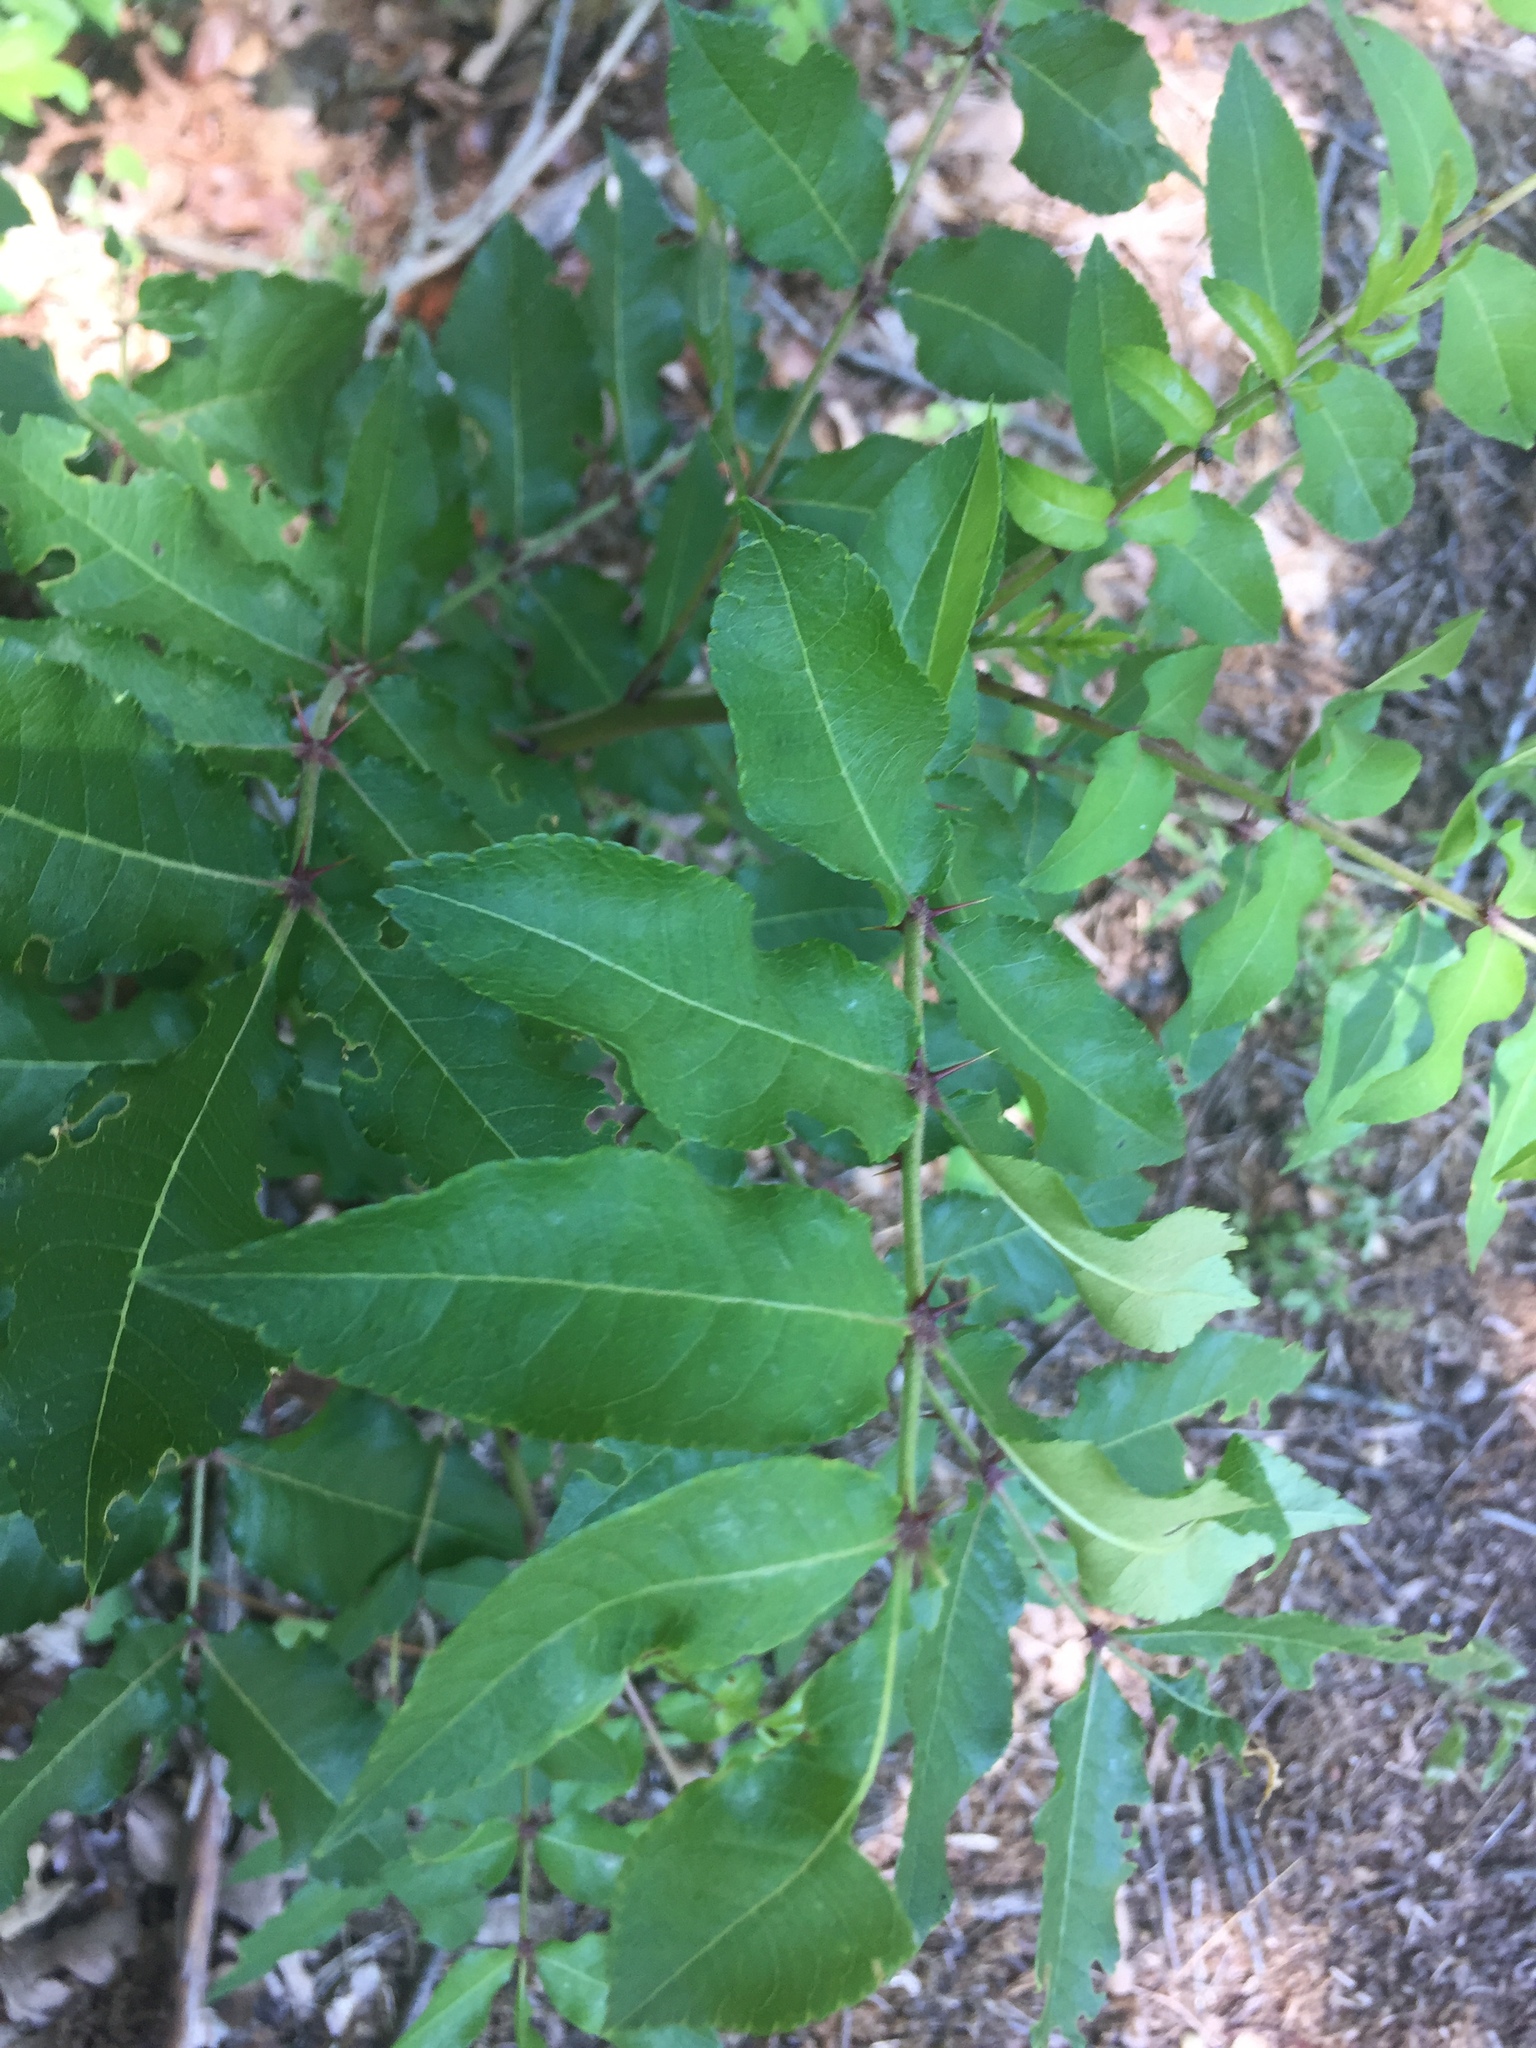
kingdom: Plantae
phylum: Tracheophyta
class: Magnoliopsida
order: Sapindales
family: Rutaceae
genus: Zanthoxylum
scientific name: Zanthoxylum clava-herculis
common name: Hercules'-club
